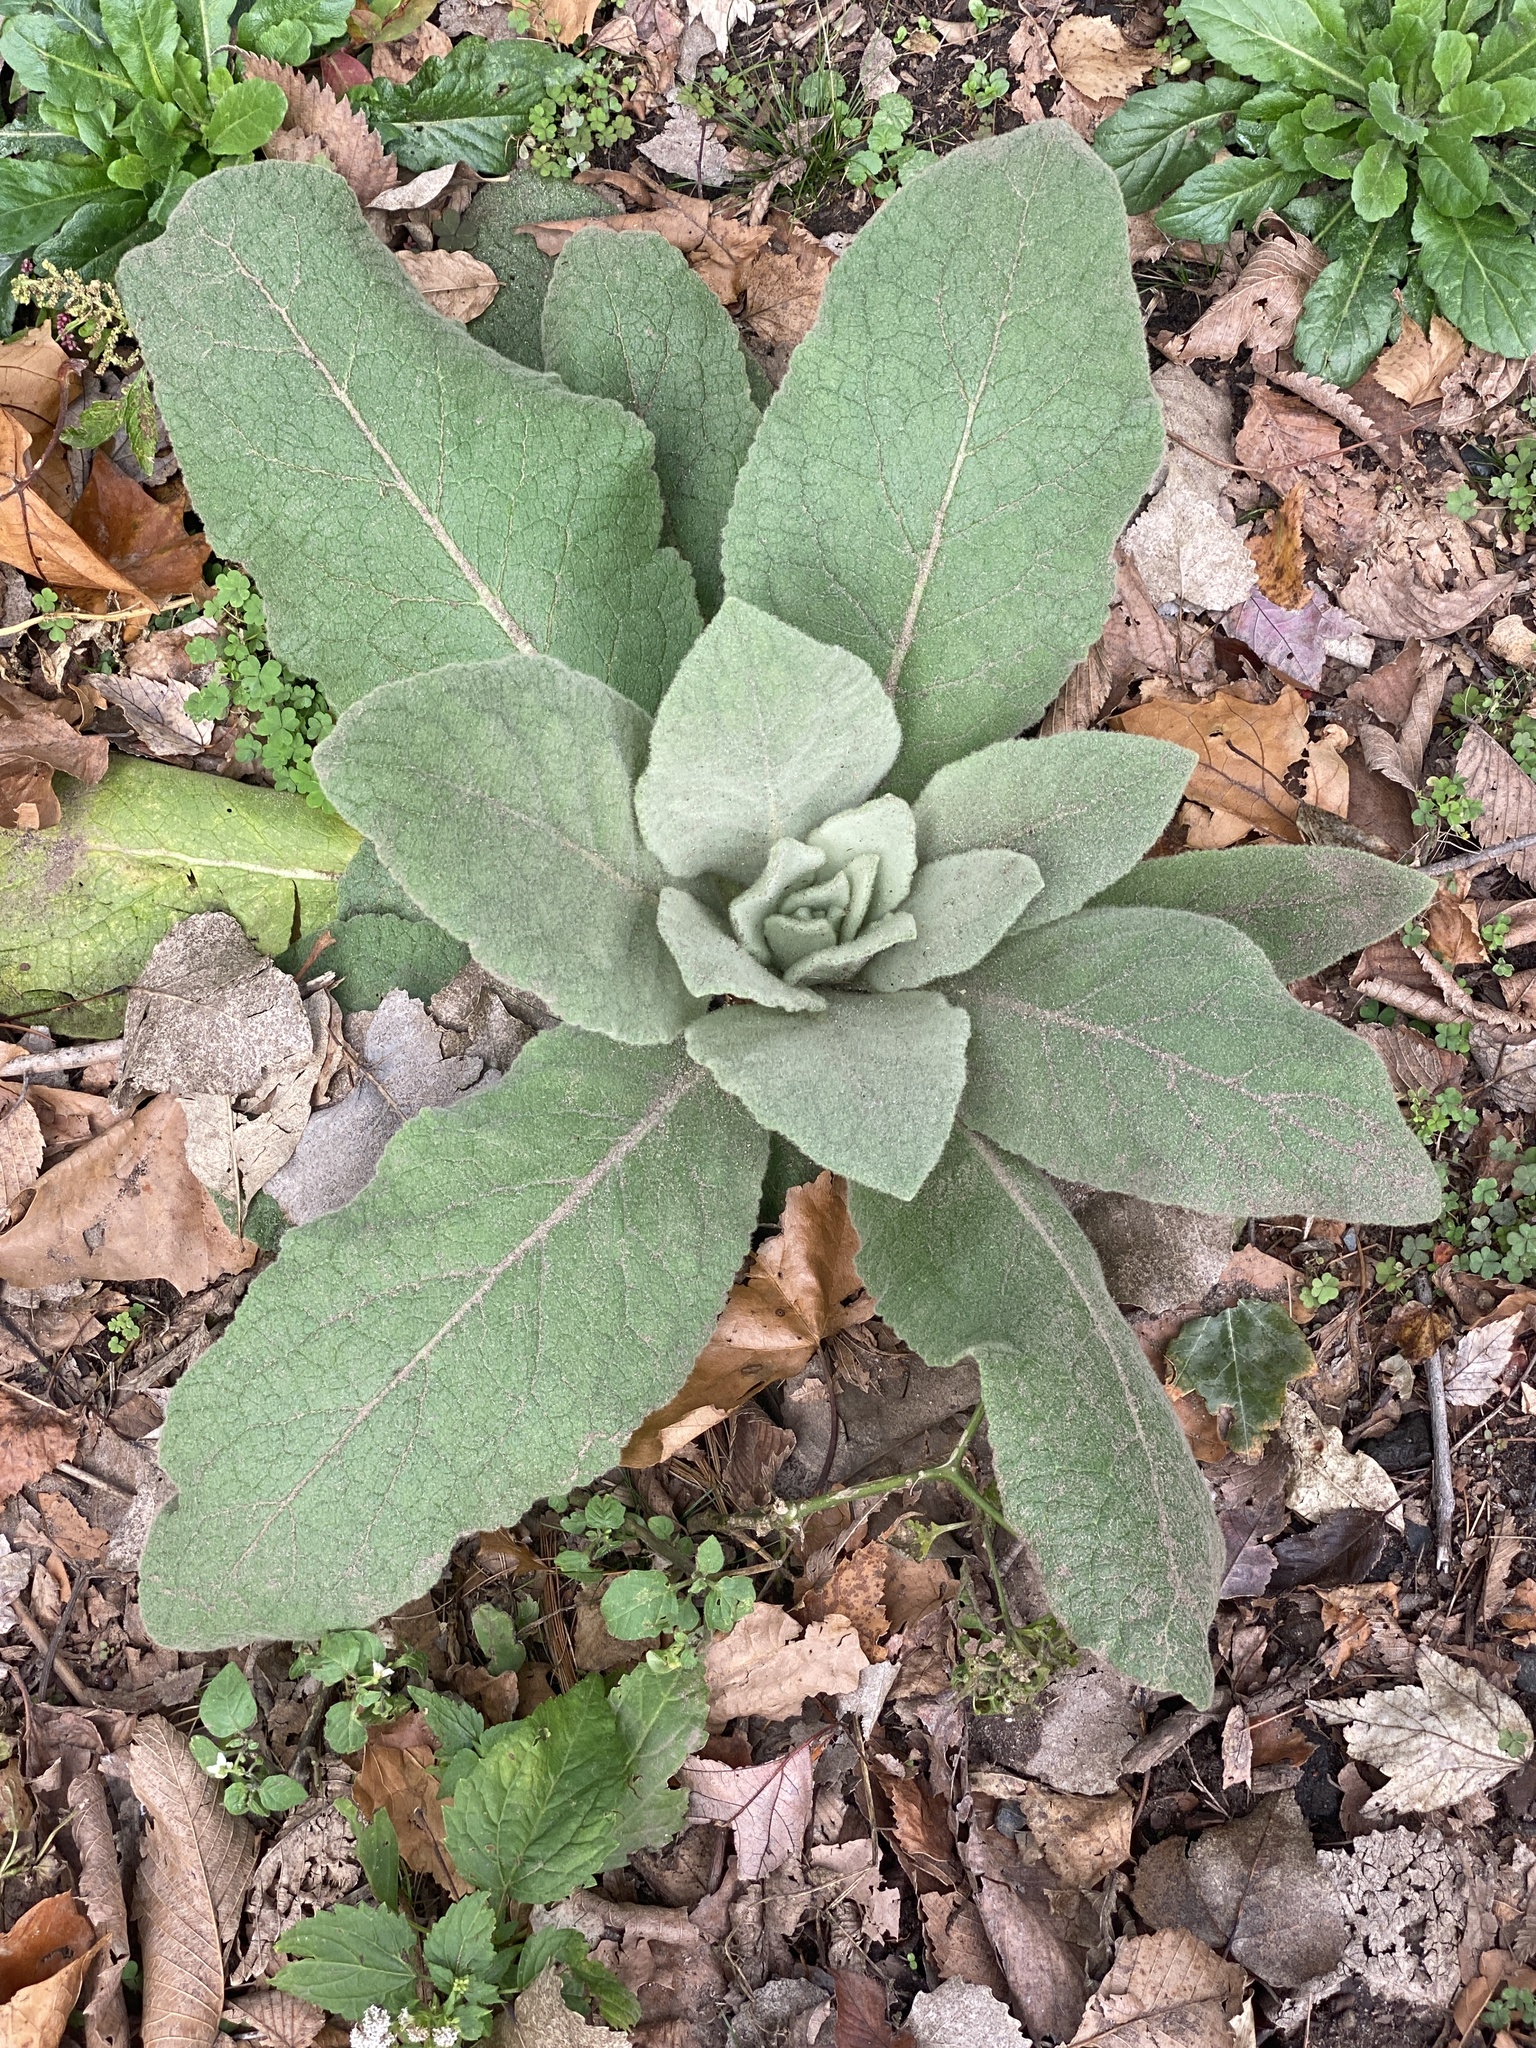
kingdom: Plantae
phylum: Tracheophyta
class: Magnoliopsida
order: Lamiales
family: Scrophulariaceae
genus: Verbascum
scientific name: Verbascum thapsus
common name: Common mullein
